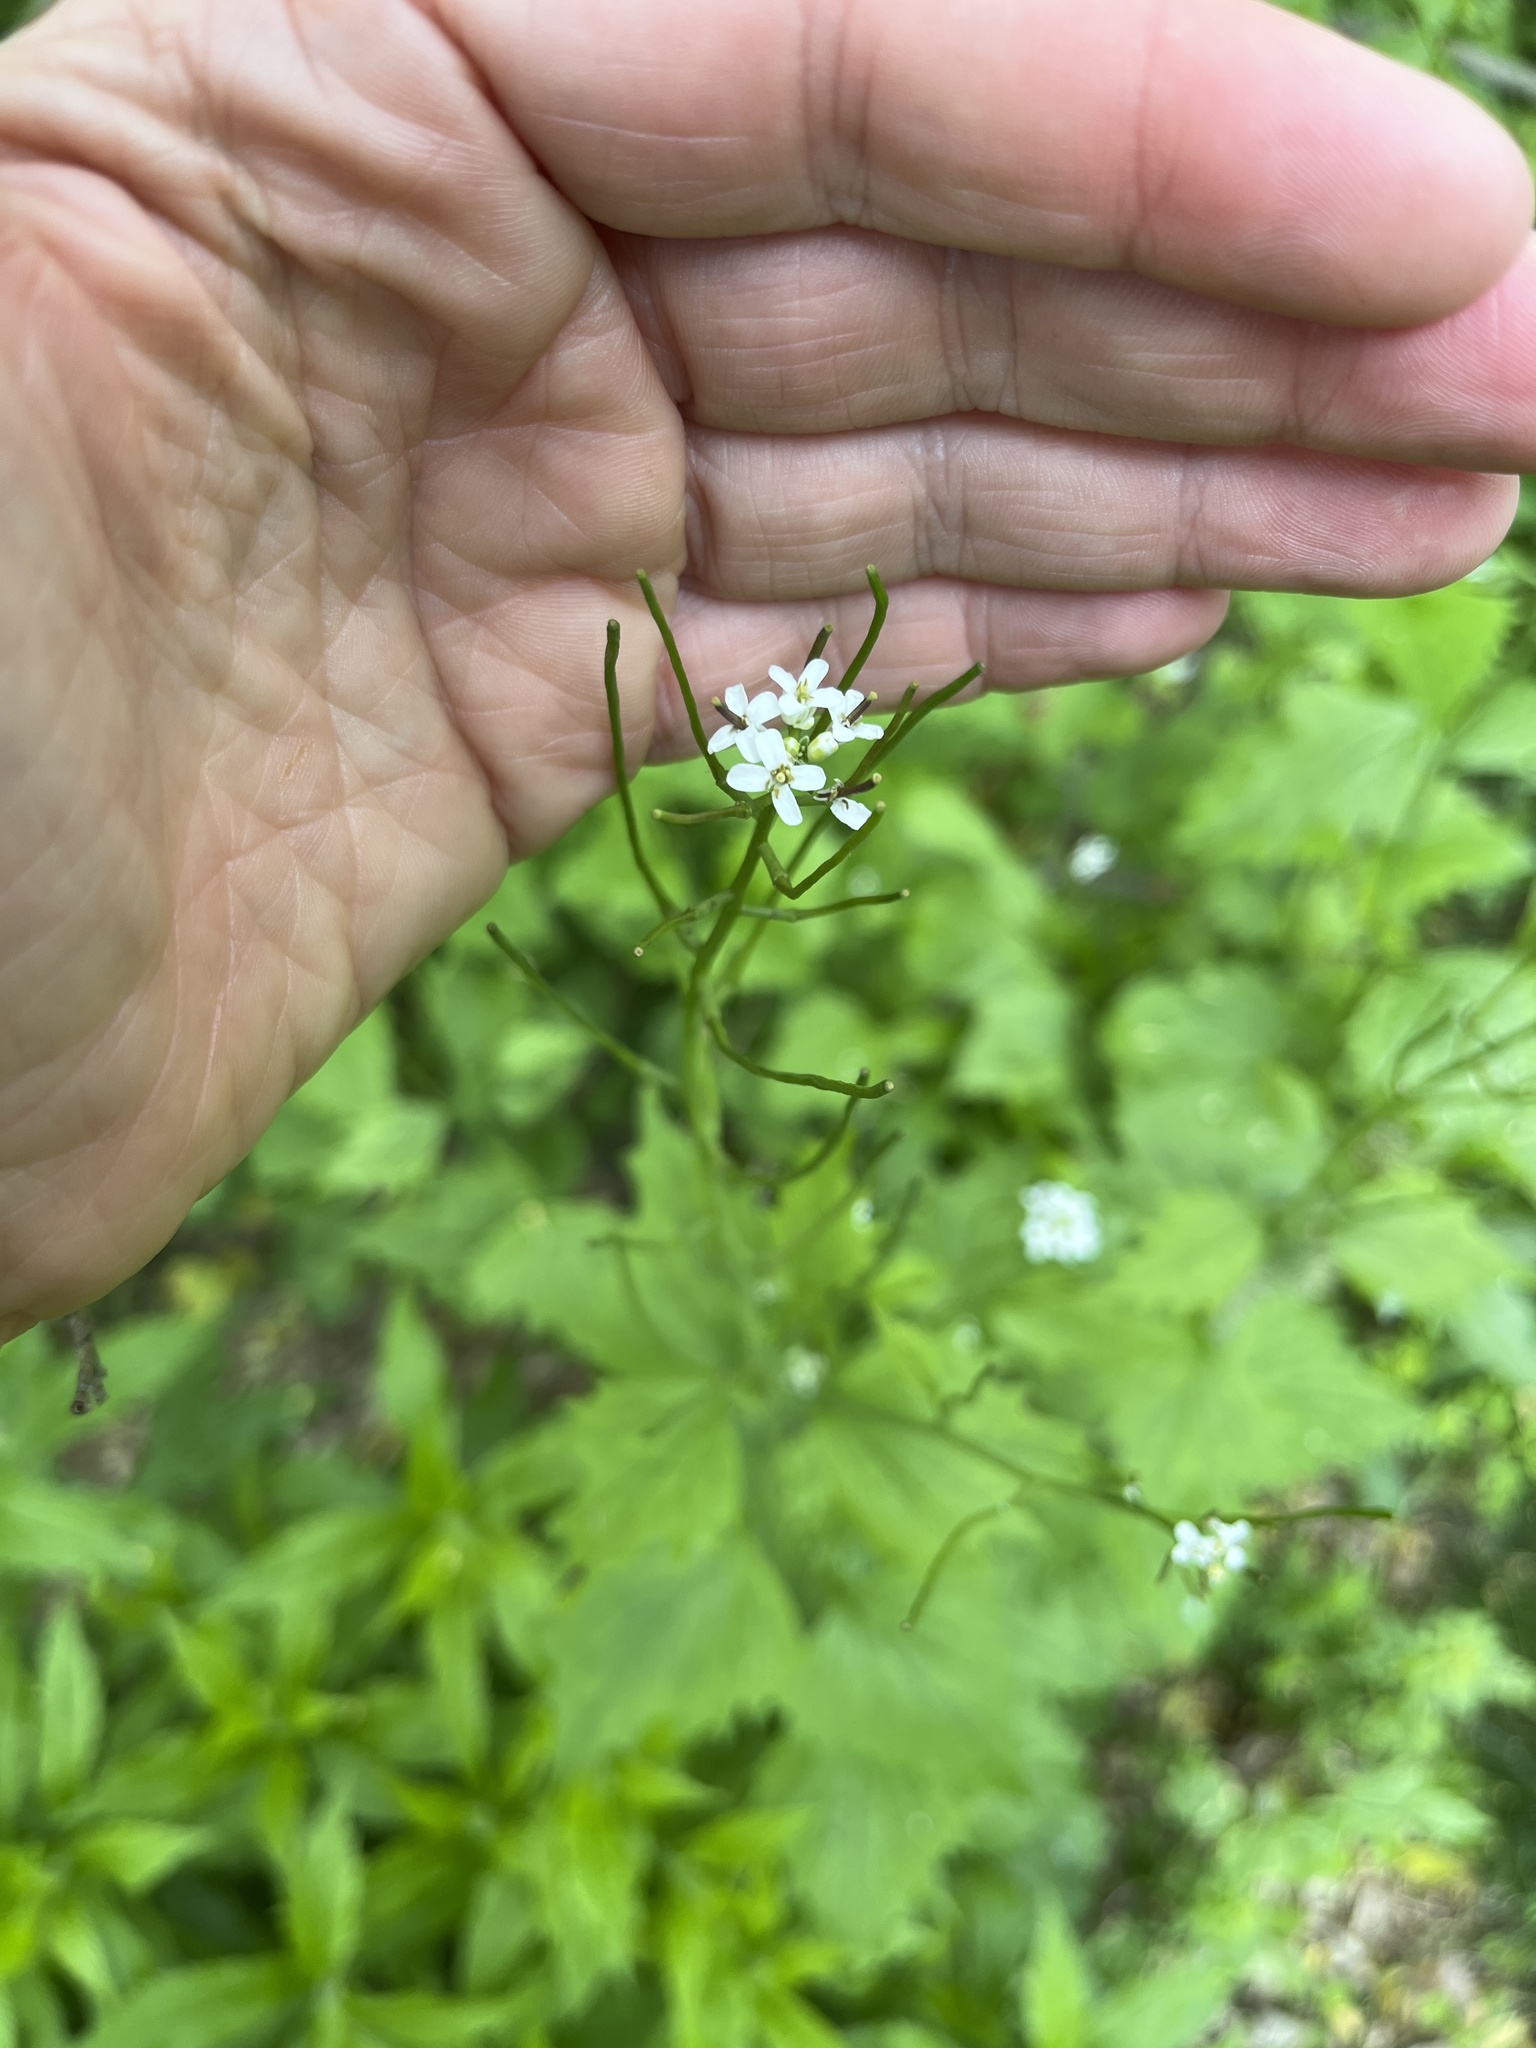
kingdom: Plantae
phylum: Tracheophyta
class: Magnoliopsida
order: Brassicales
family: Brassicaceae
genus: Alliaria
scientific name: Alliaria petiolata
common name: Garlic mustard
